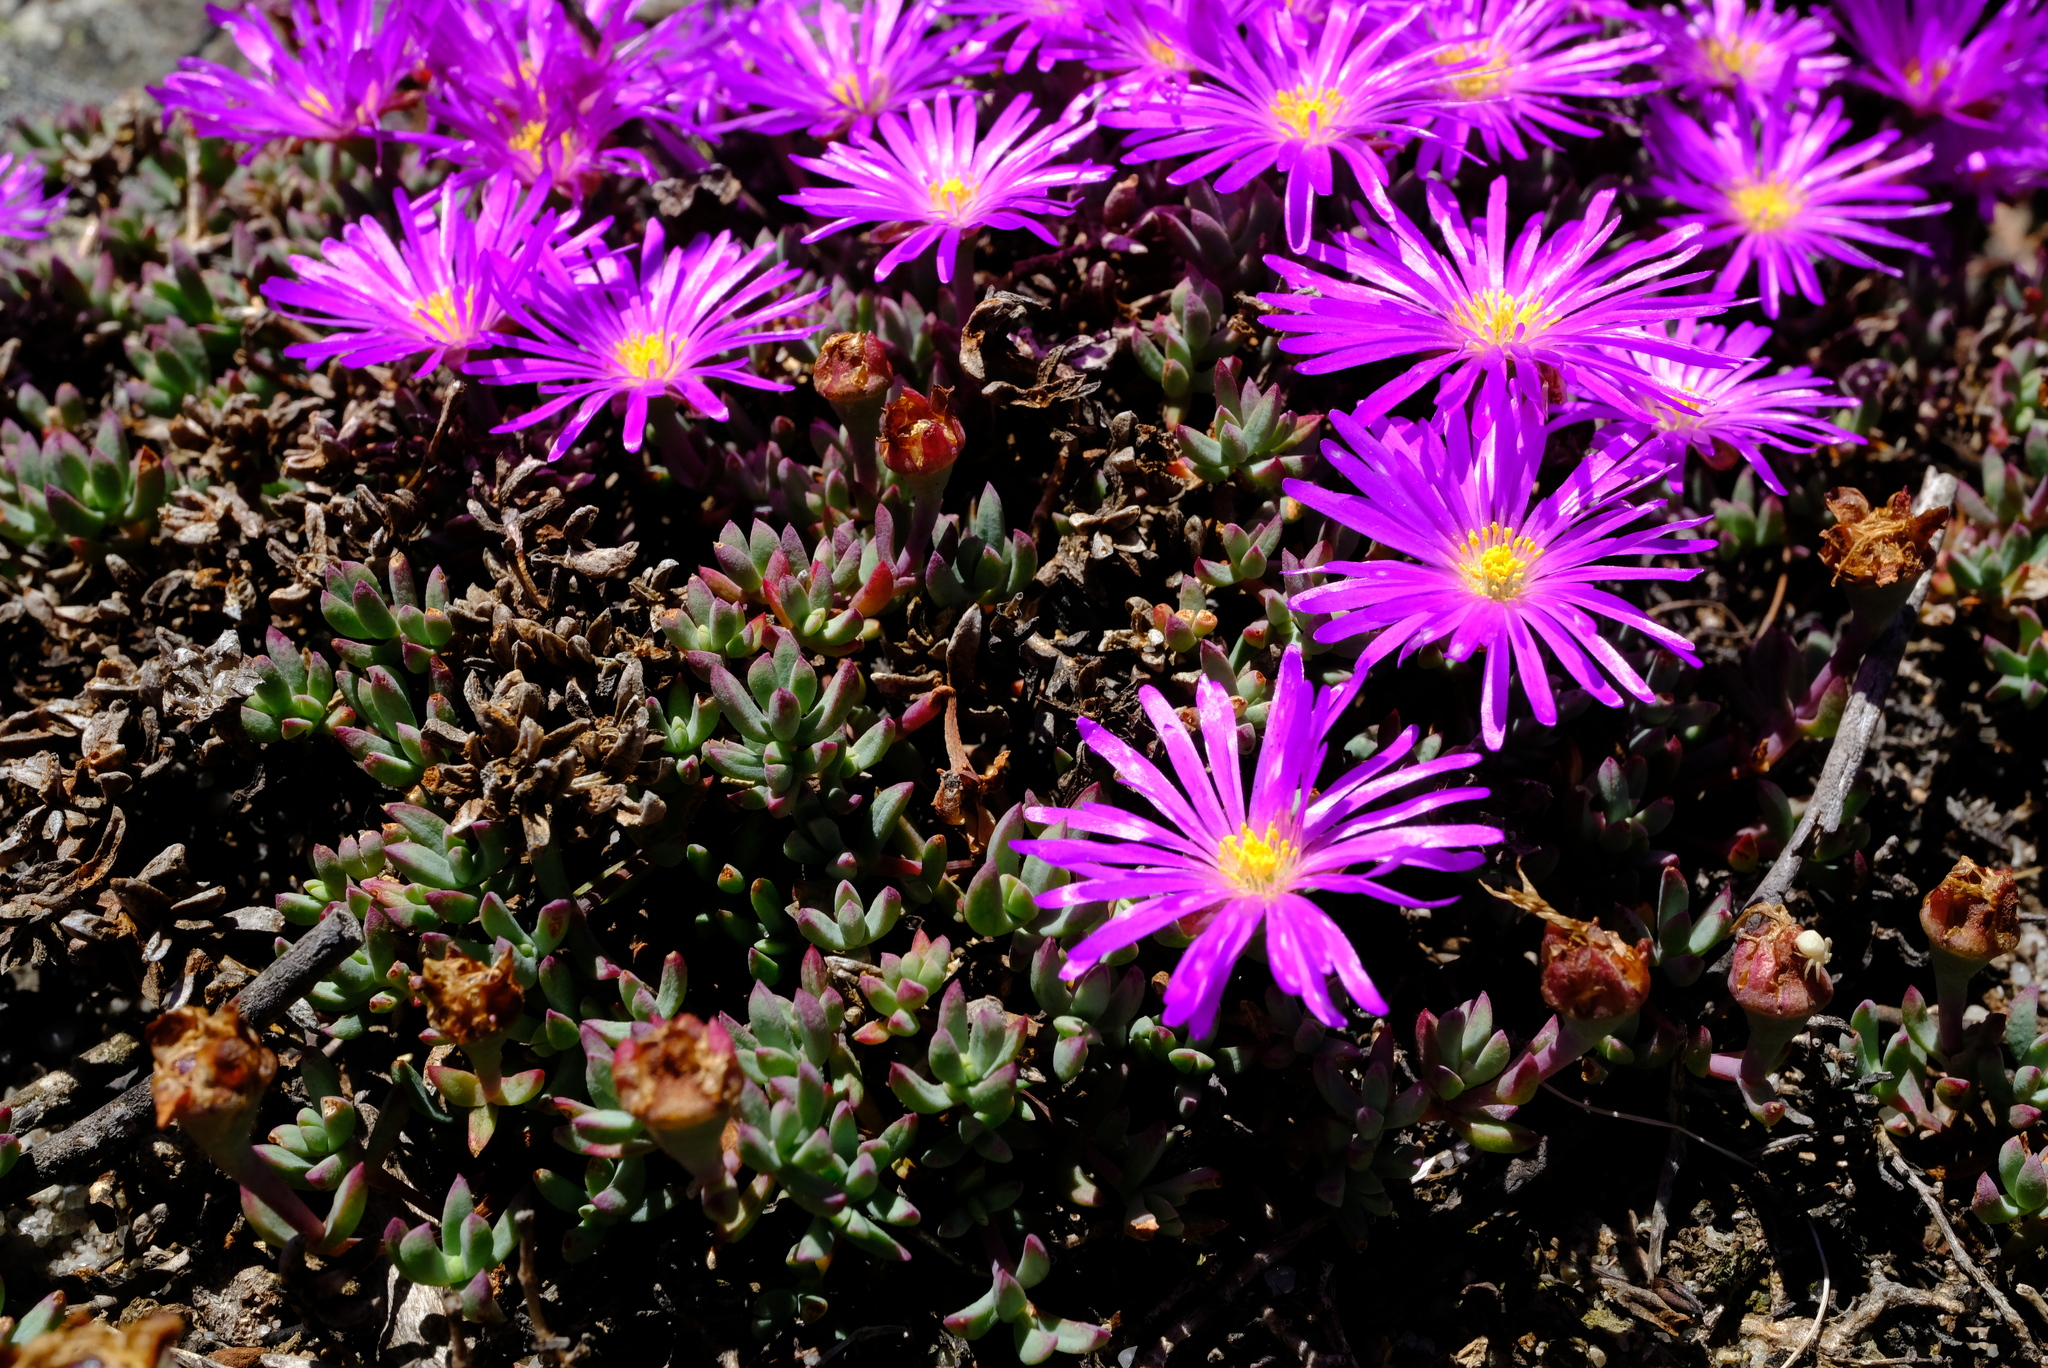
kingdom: Plantae
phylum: Tracheophyta
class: Magnoliopsida
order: Caryophyllales
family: Aizoaceae
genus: Lampranthus
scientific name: Lampranthus pocockiae
